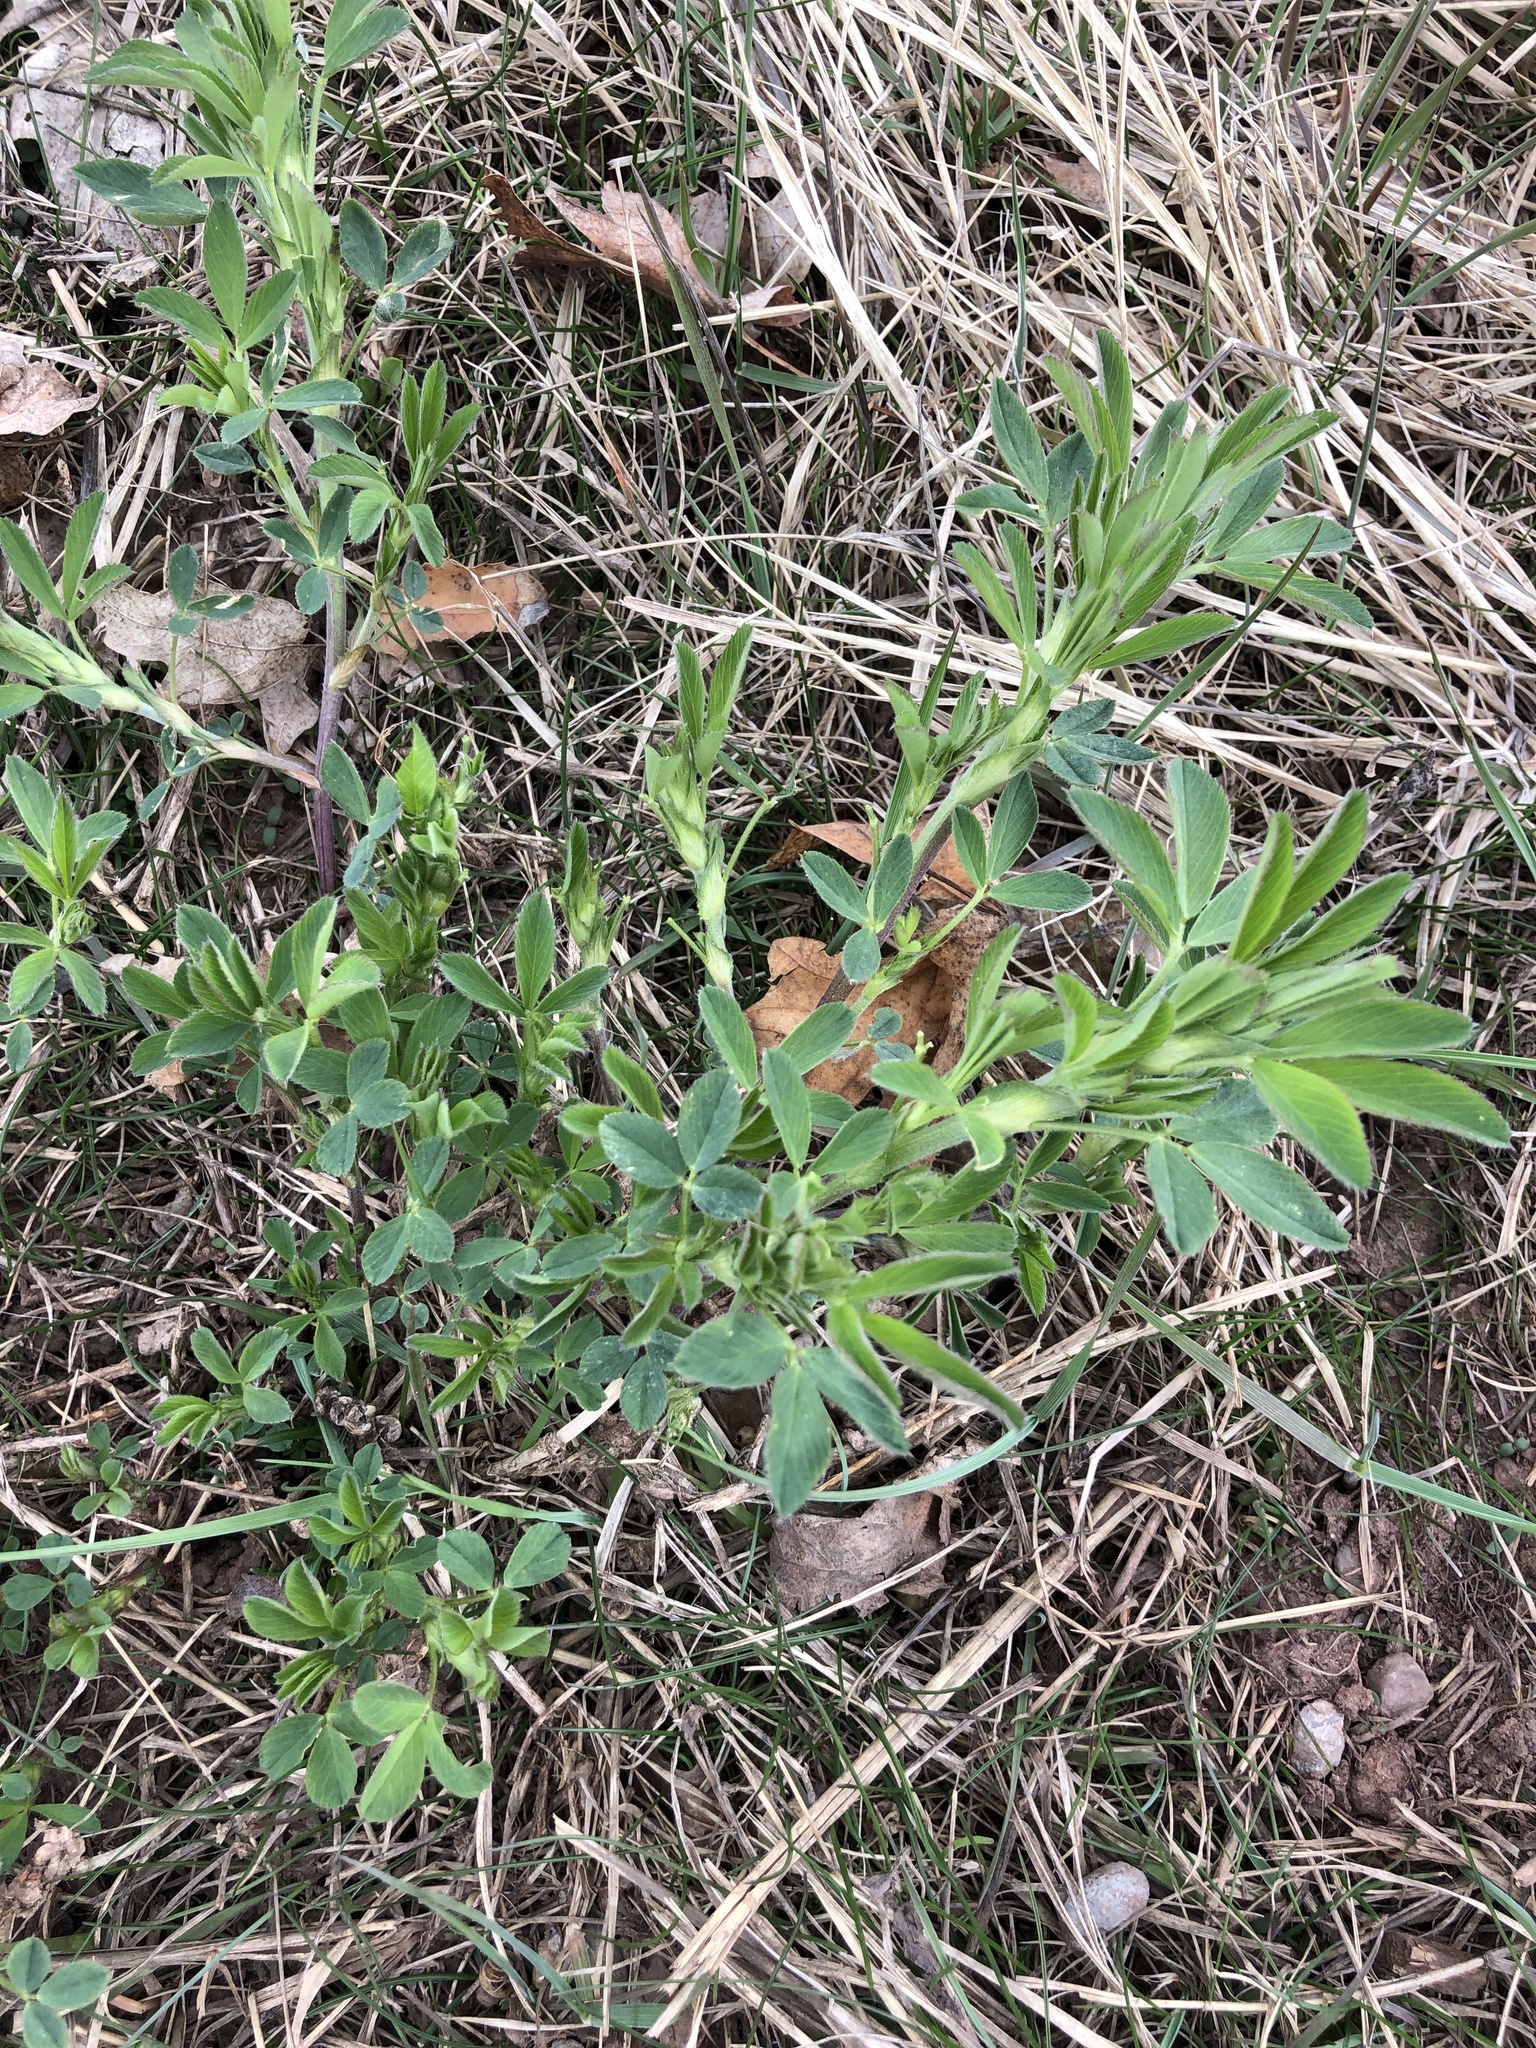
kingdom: Plantae
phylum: Tracheophyta
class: Magnoliopsida
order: Fabales
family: Fabaceae
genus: Medicago
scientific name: Medicago sativa
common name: Alfalfa
